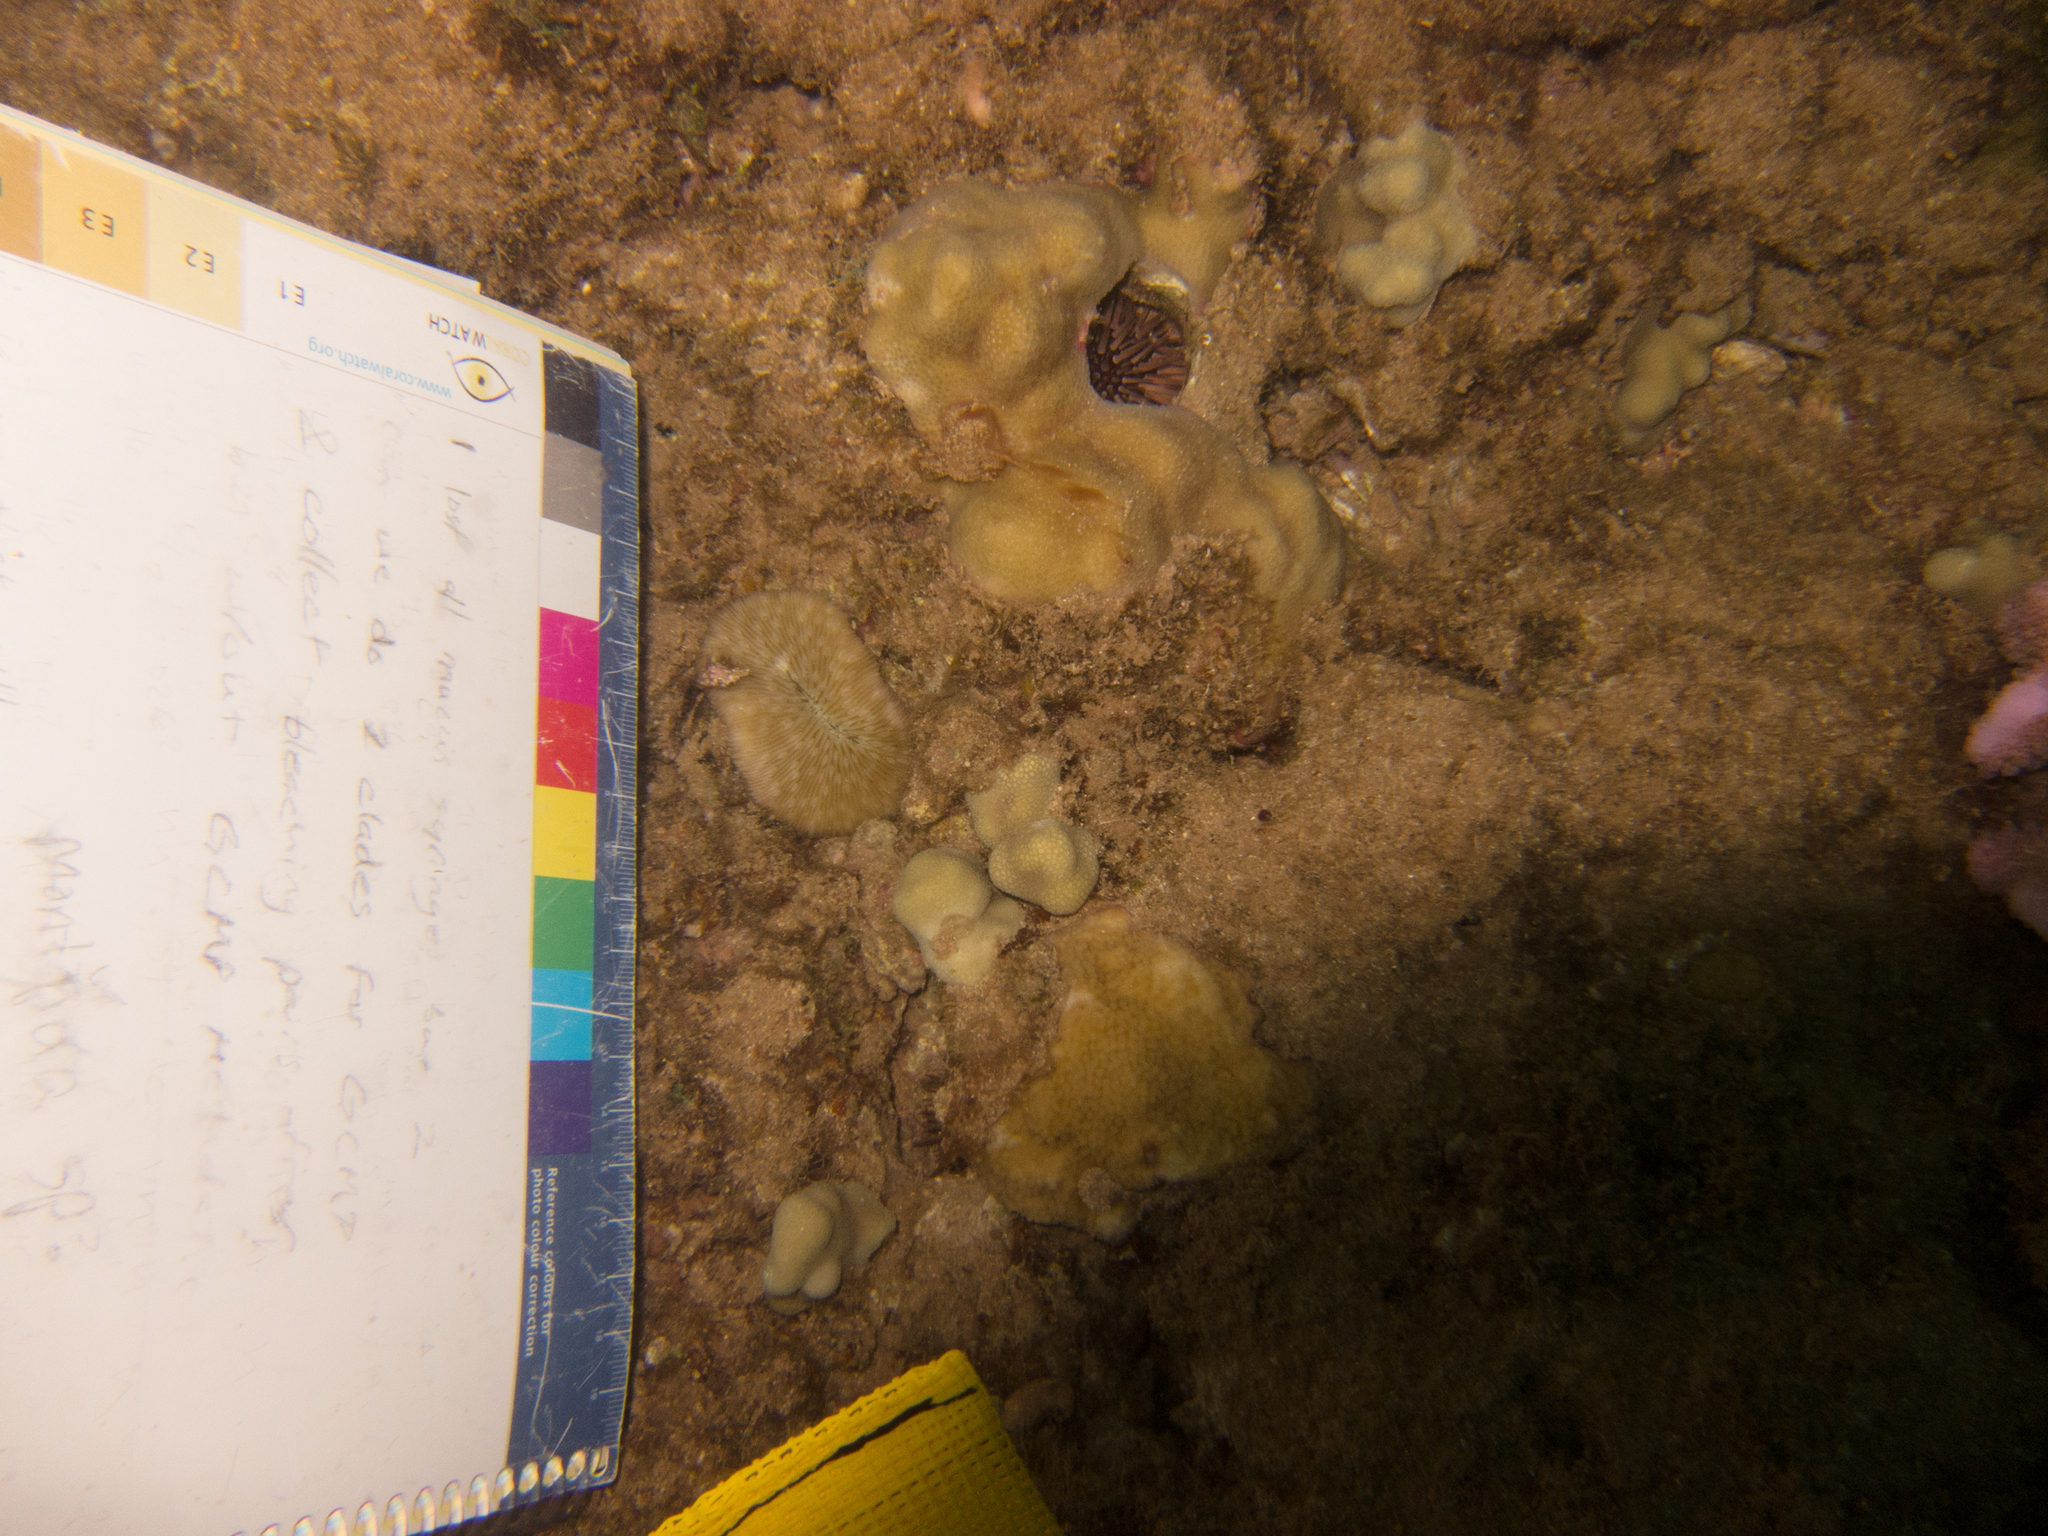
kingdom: Animalia
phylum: Cnidaria
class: Anthozoa
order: Scleractinia
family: Fungiidae
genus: Lobactis
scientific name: Lobactis scutaria
